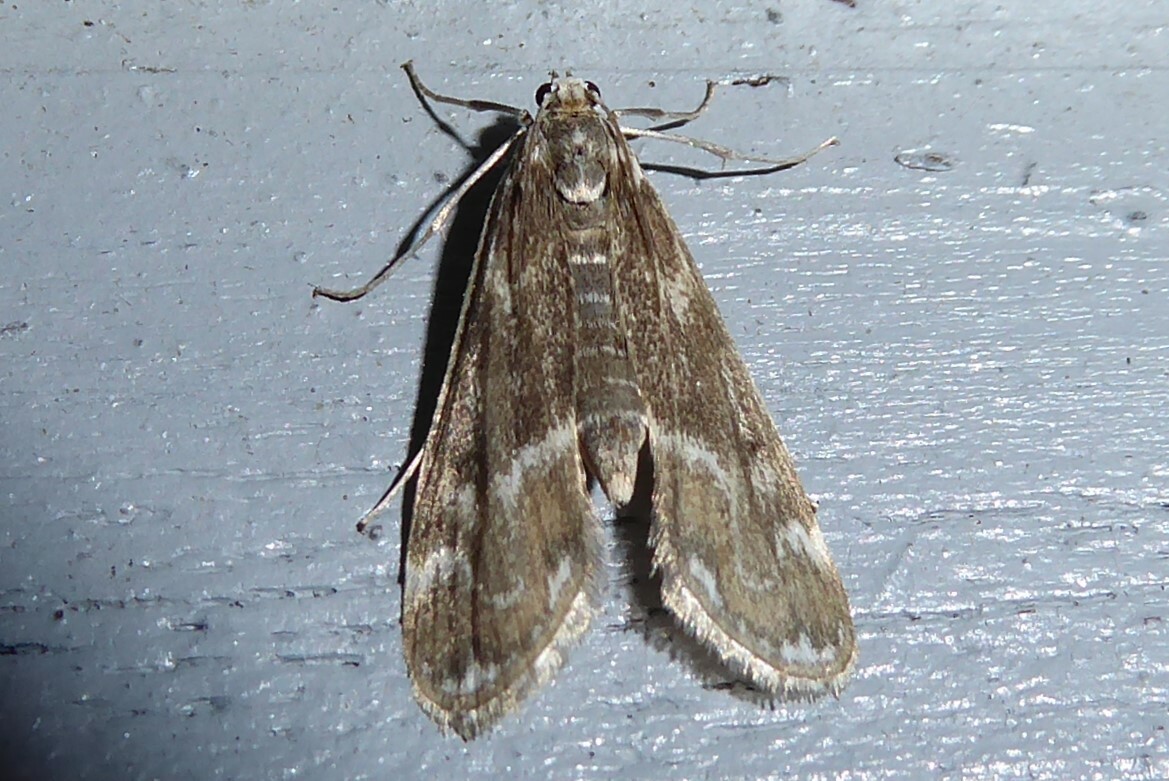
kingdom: Animalia
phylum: Arthropoda
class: Insecta
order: Lepidoptera
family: Crambidae
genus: Hygraula
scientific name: Hygraula nitens
